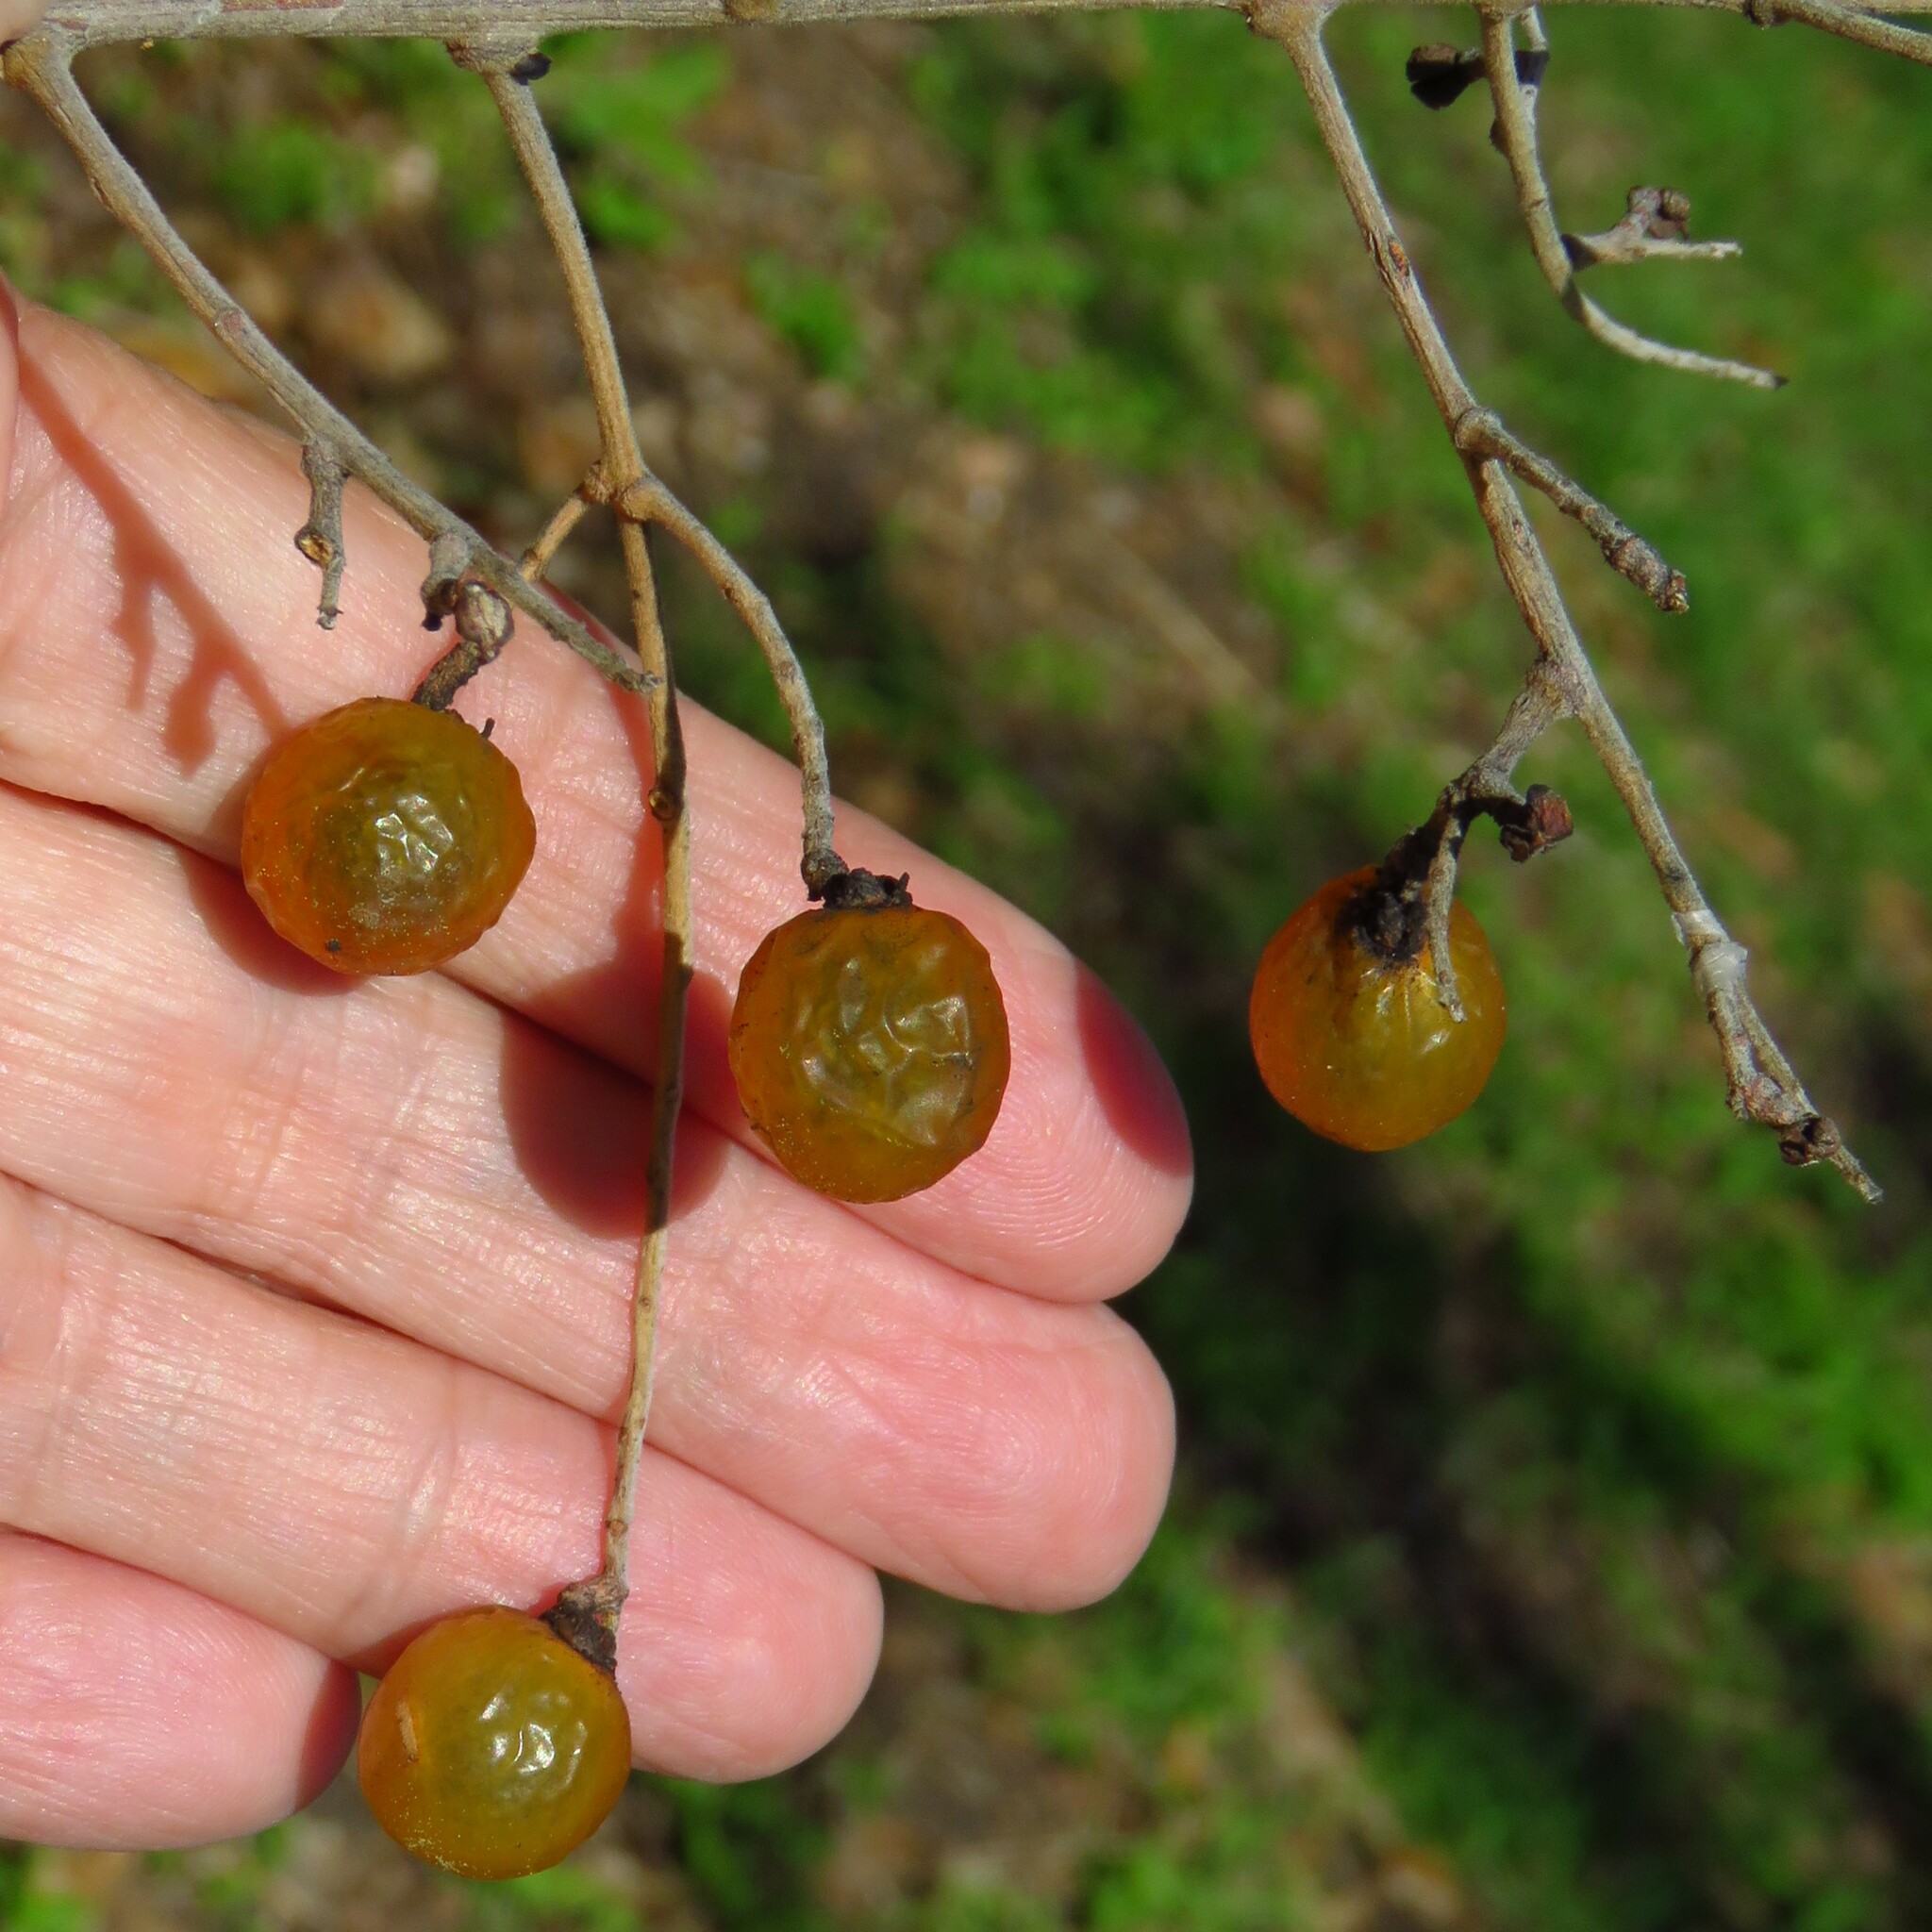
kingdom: Plantae
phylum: Tracheophyta
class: Magnoliopsida
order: Sapindales
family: Sapindaceae
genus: Sapindus
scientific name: Sapindus drummondii
